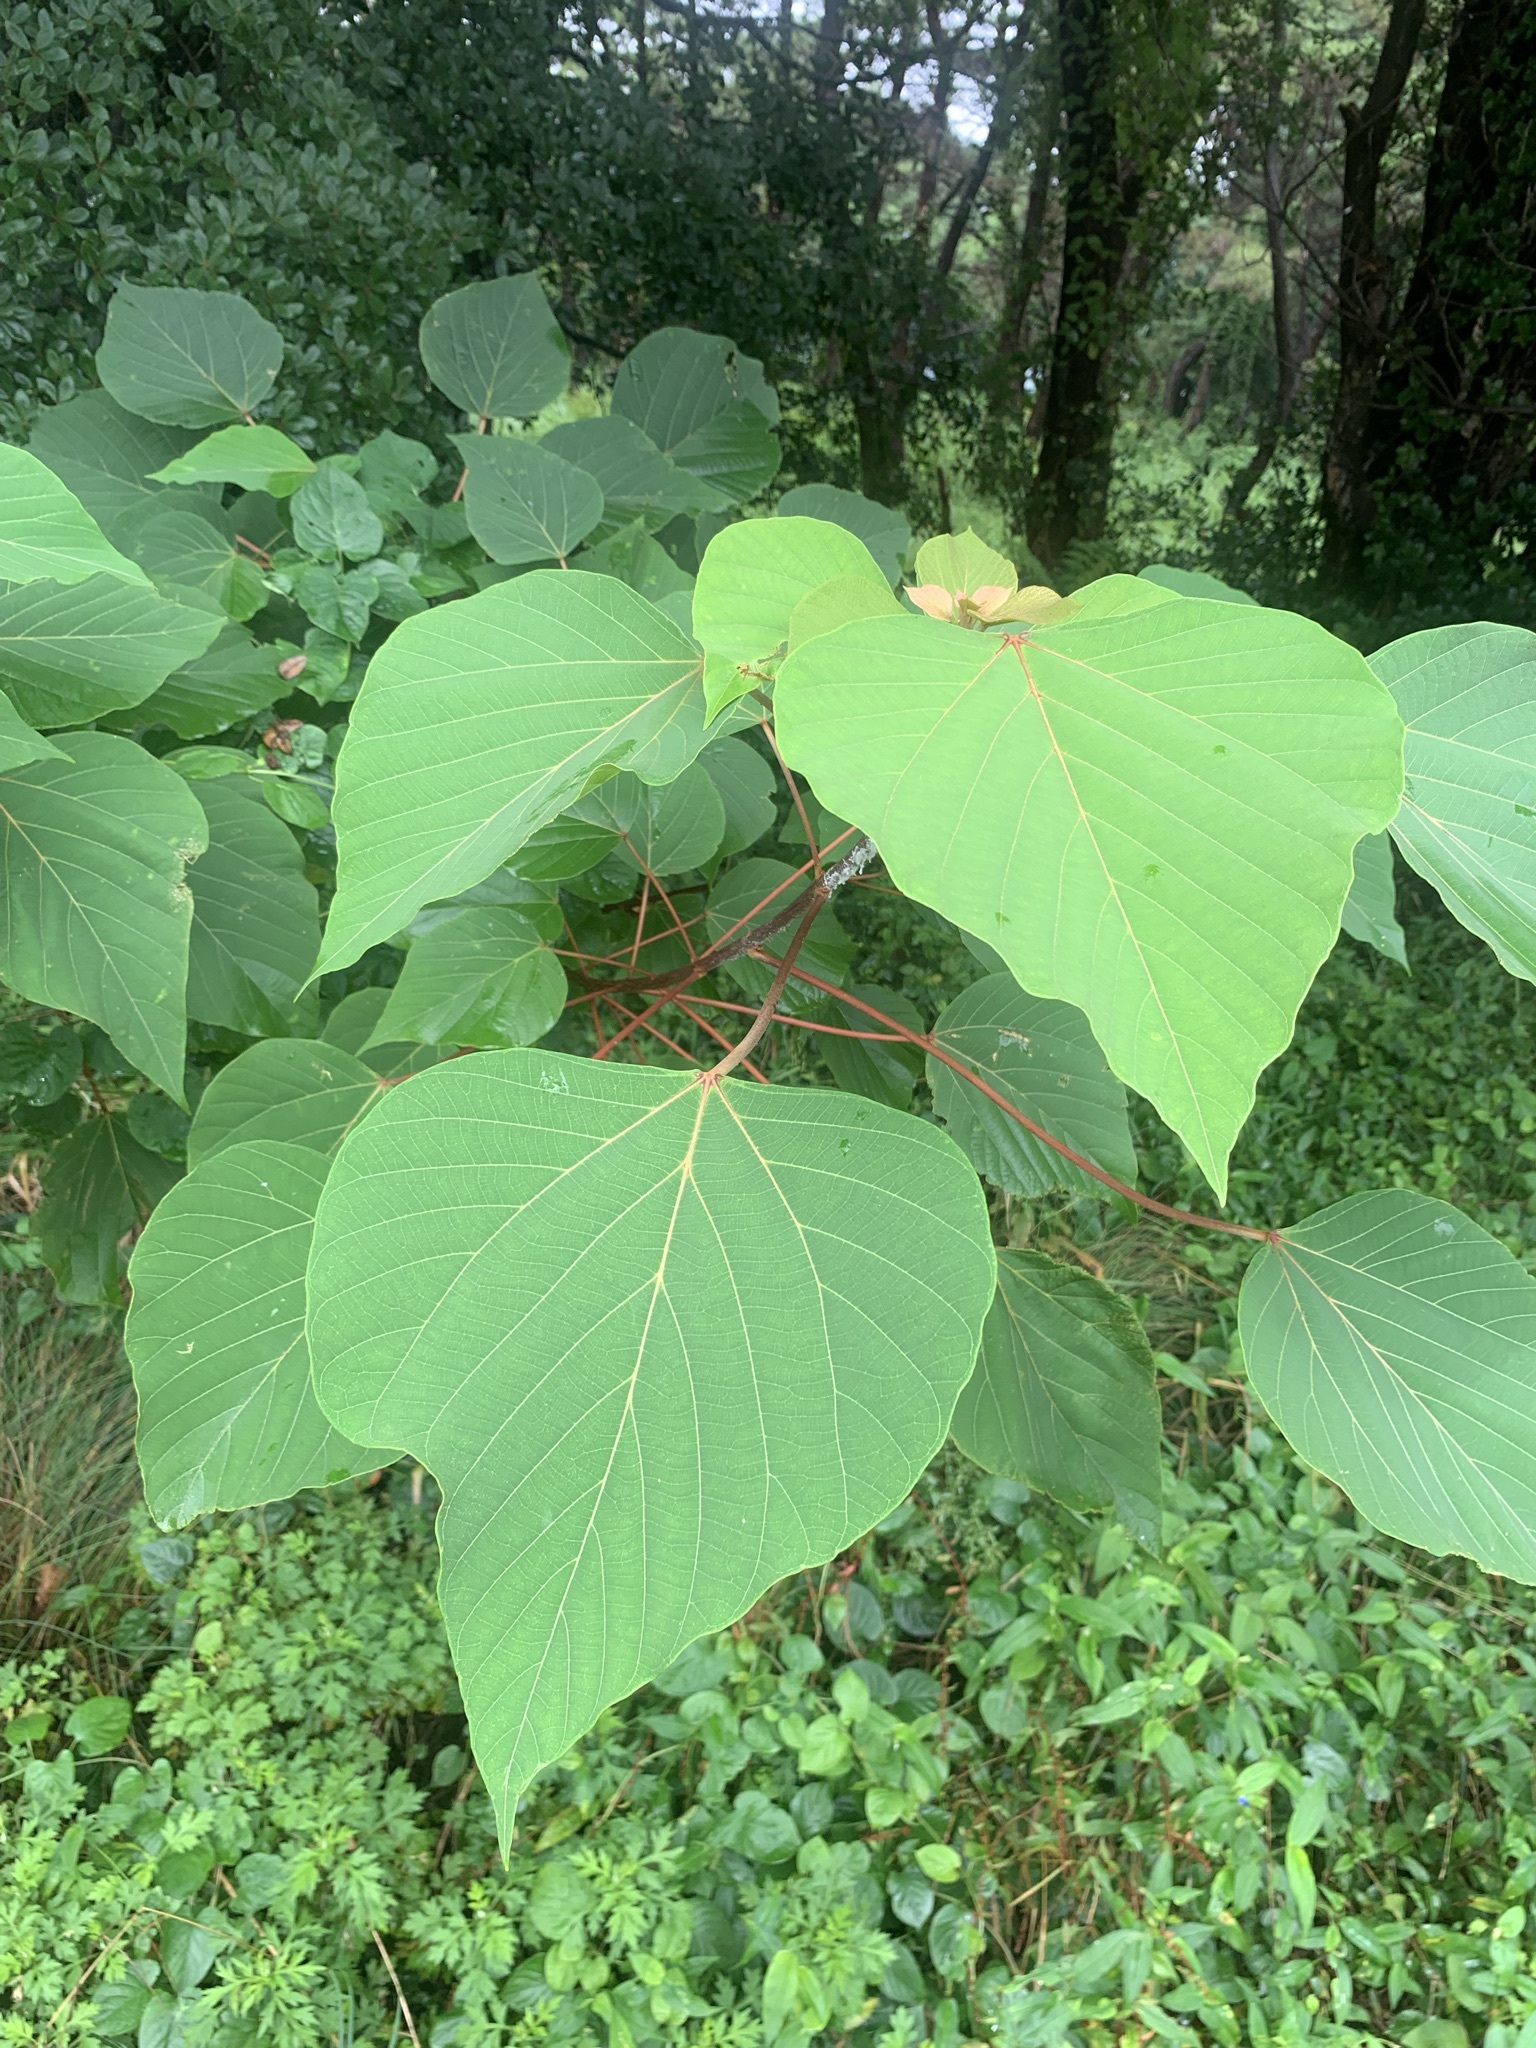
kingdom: Plantae
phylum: Tracheophyta
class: Magnoliopsida
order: Malpighiales
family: Euphorbiaceae
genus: Mallotus
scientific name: Mallotus japonicus
